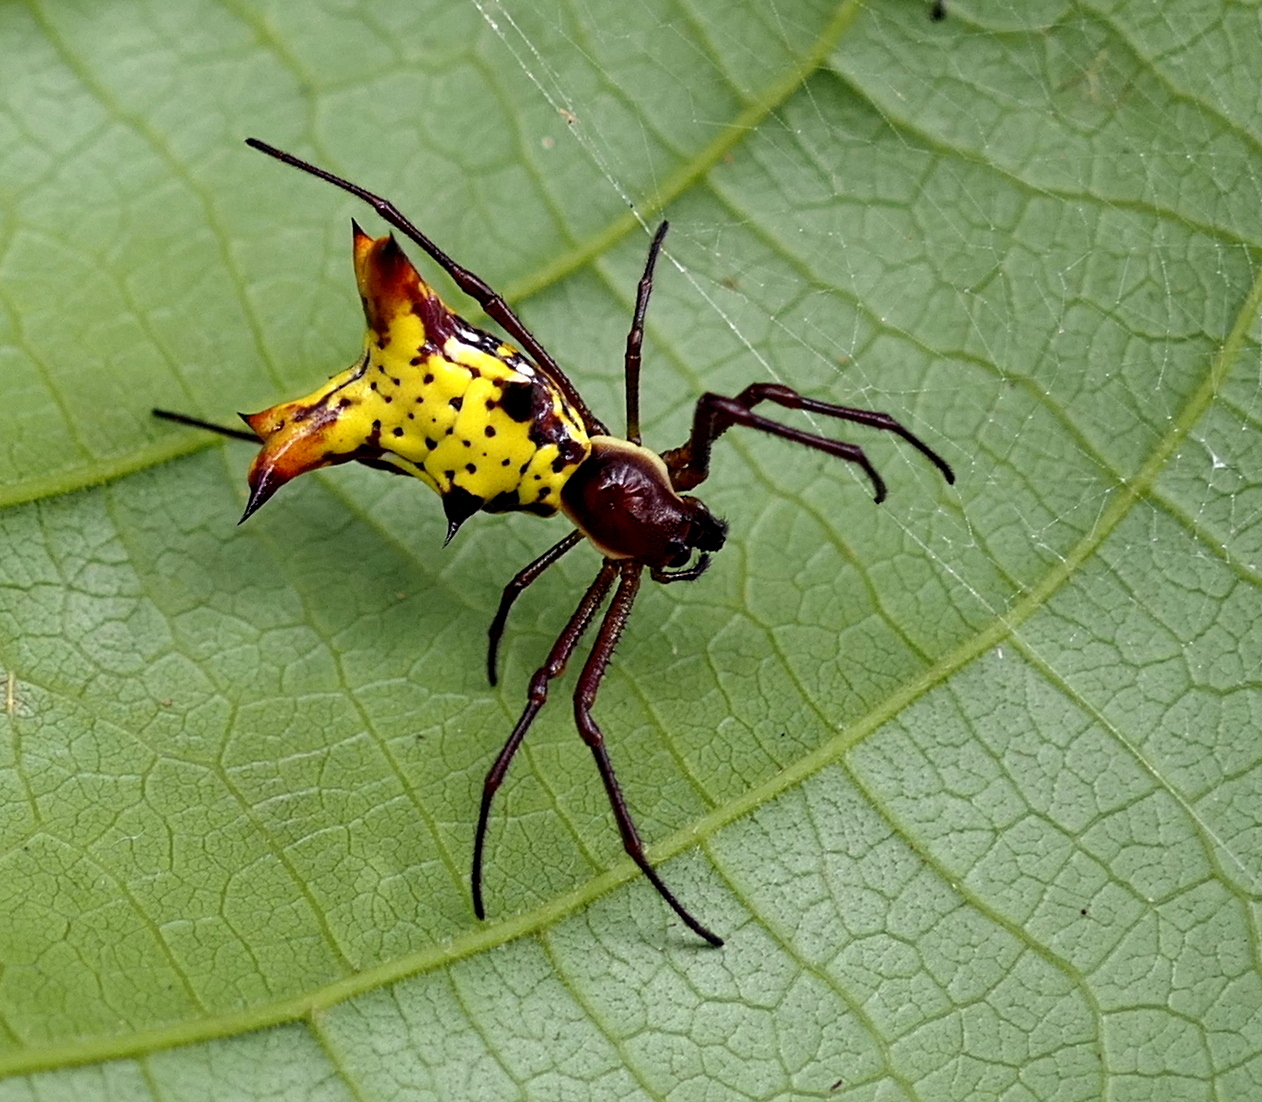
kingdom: Animalia
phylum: Arthropoda
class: Arachnida
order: Araneae
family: Araneidae
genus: Micrathena
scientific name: Micrathena fissispina
